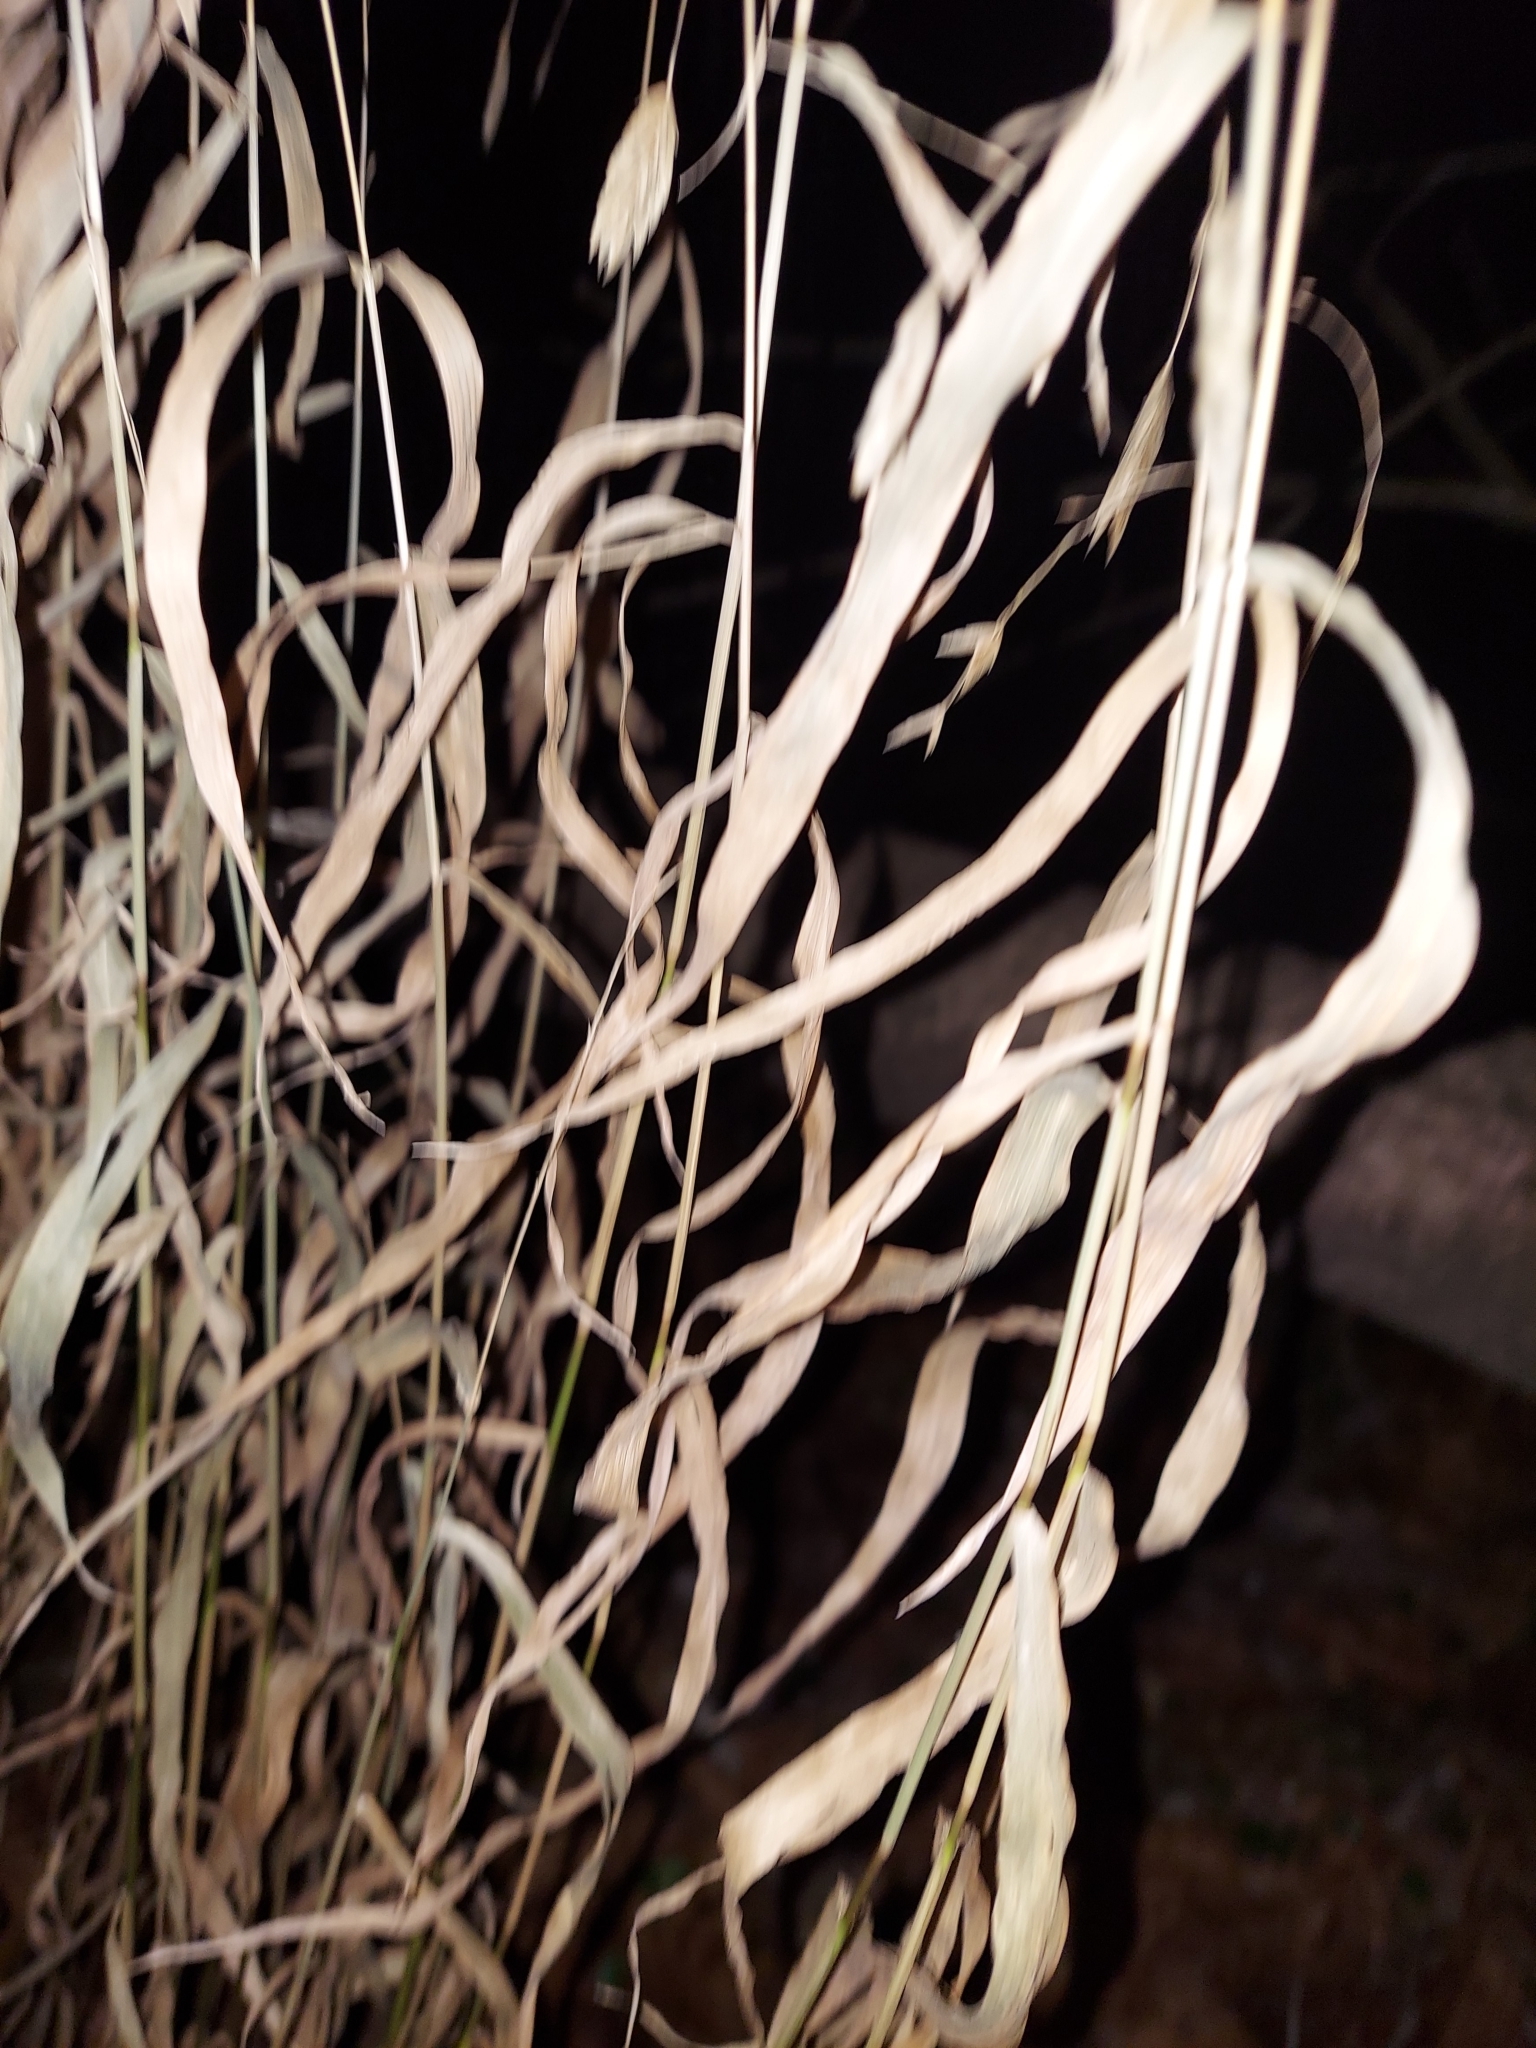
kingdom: Plantae
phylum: Tracheophyta
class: Liliopsida
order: Poales
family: Poaceae
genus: Chasmanthium
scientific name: Chasmanthium latifolium
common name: Broad-leaved chasmanthium
